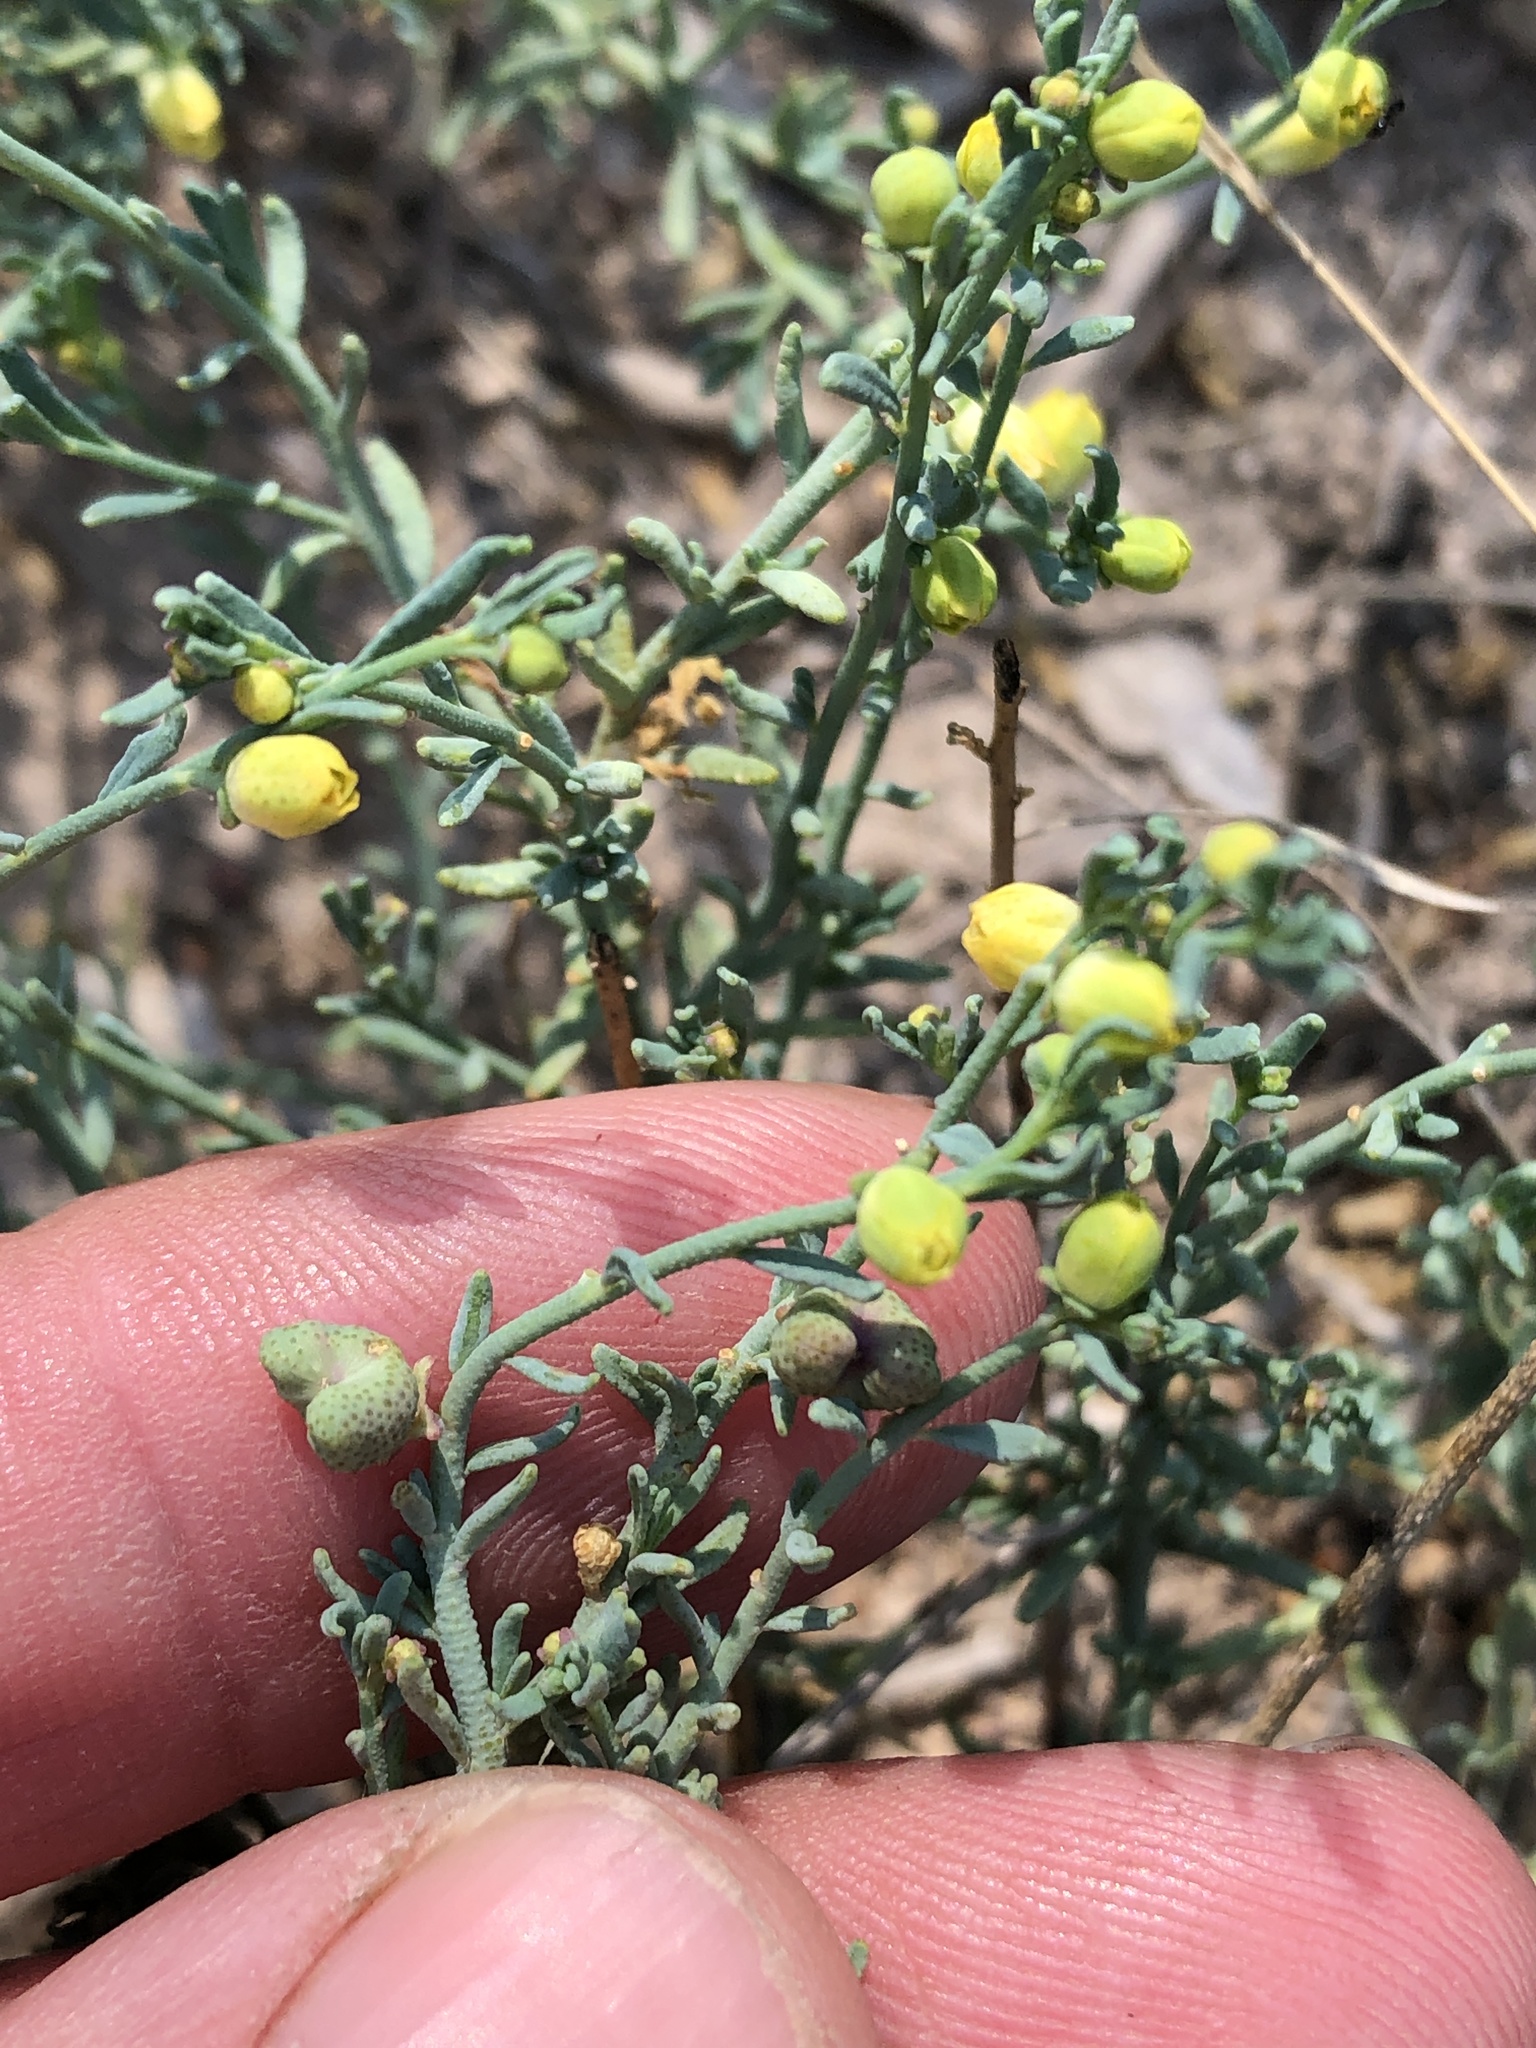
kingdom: Plantae
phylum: Tracheophyta
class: Magnoliopsida
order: Sapindales
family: Rutaceae
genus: Thamnosma
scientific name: Thamnosma texana
